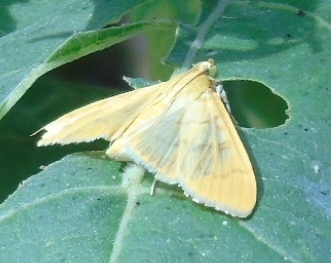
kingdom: Animalia
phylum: Arthropoda
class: Insecta
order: Lepidoptera
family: Crambidae
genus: Spilomelinae
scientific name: Spilomelinae
